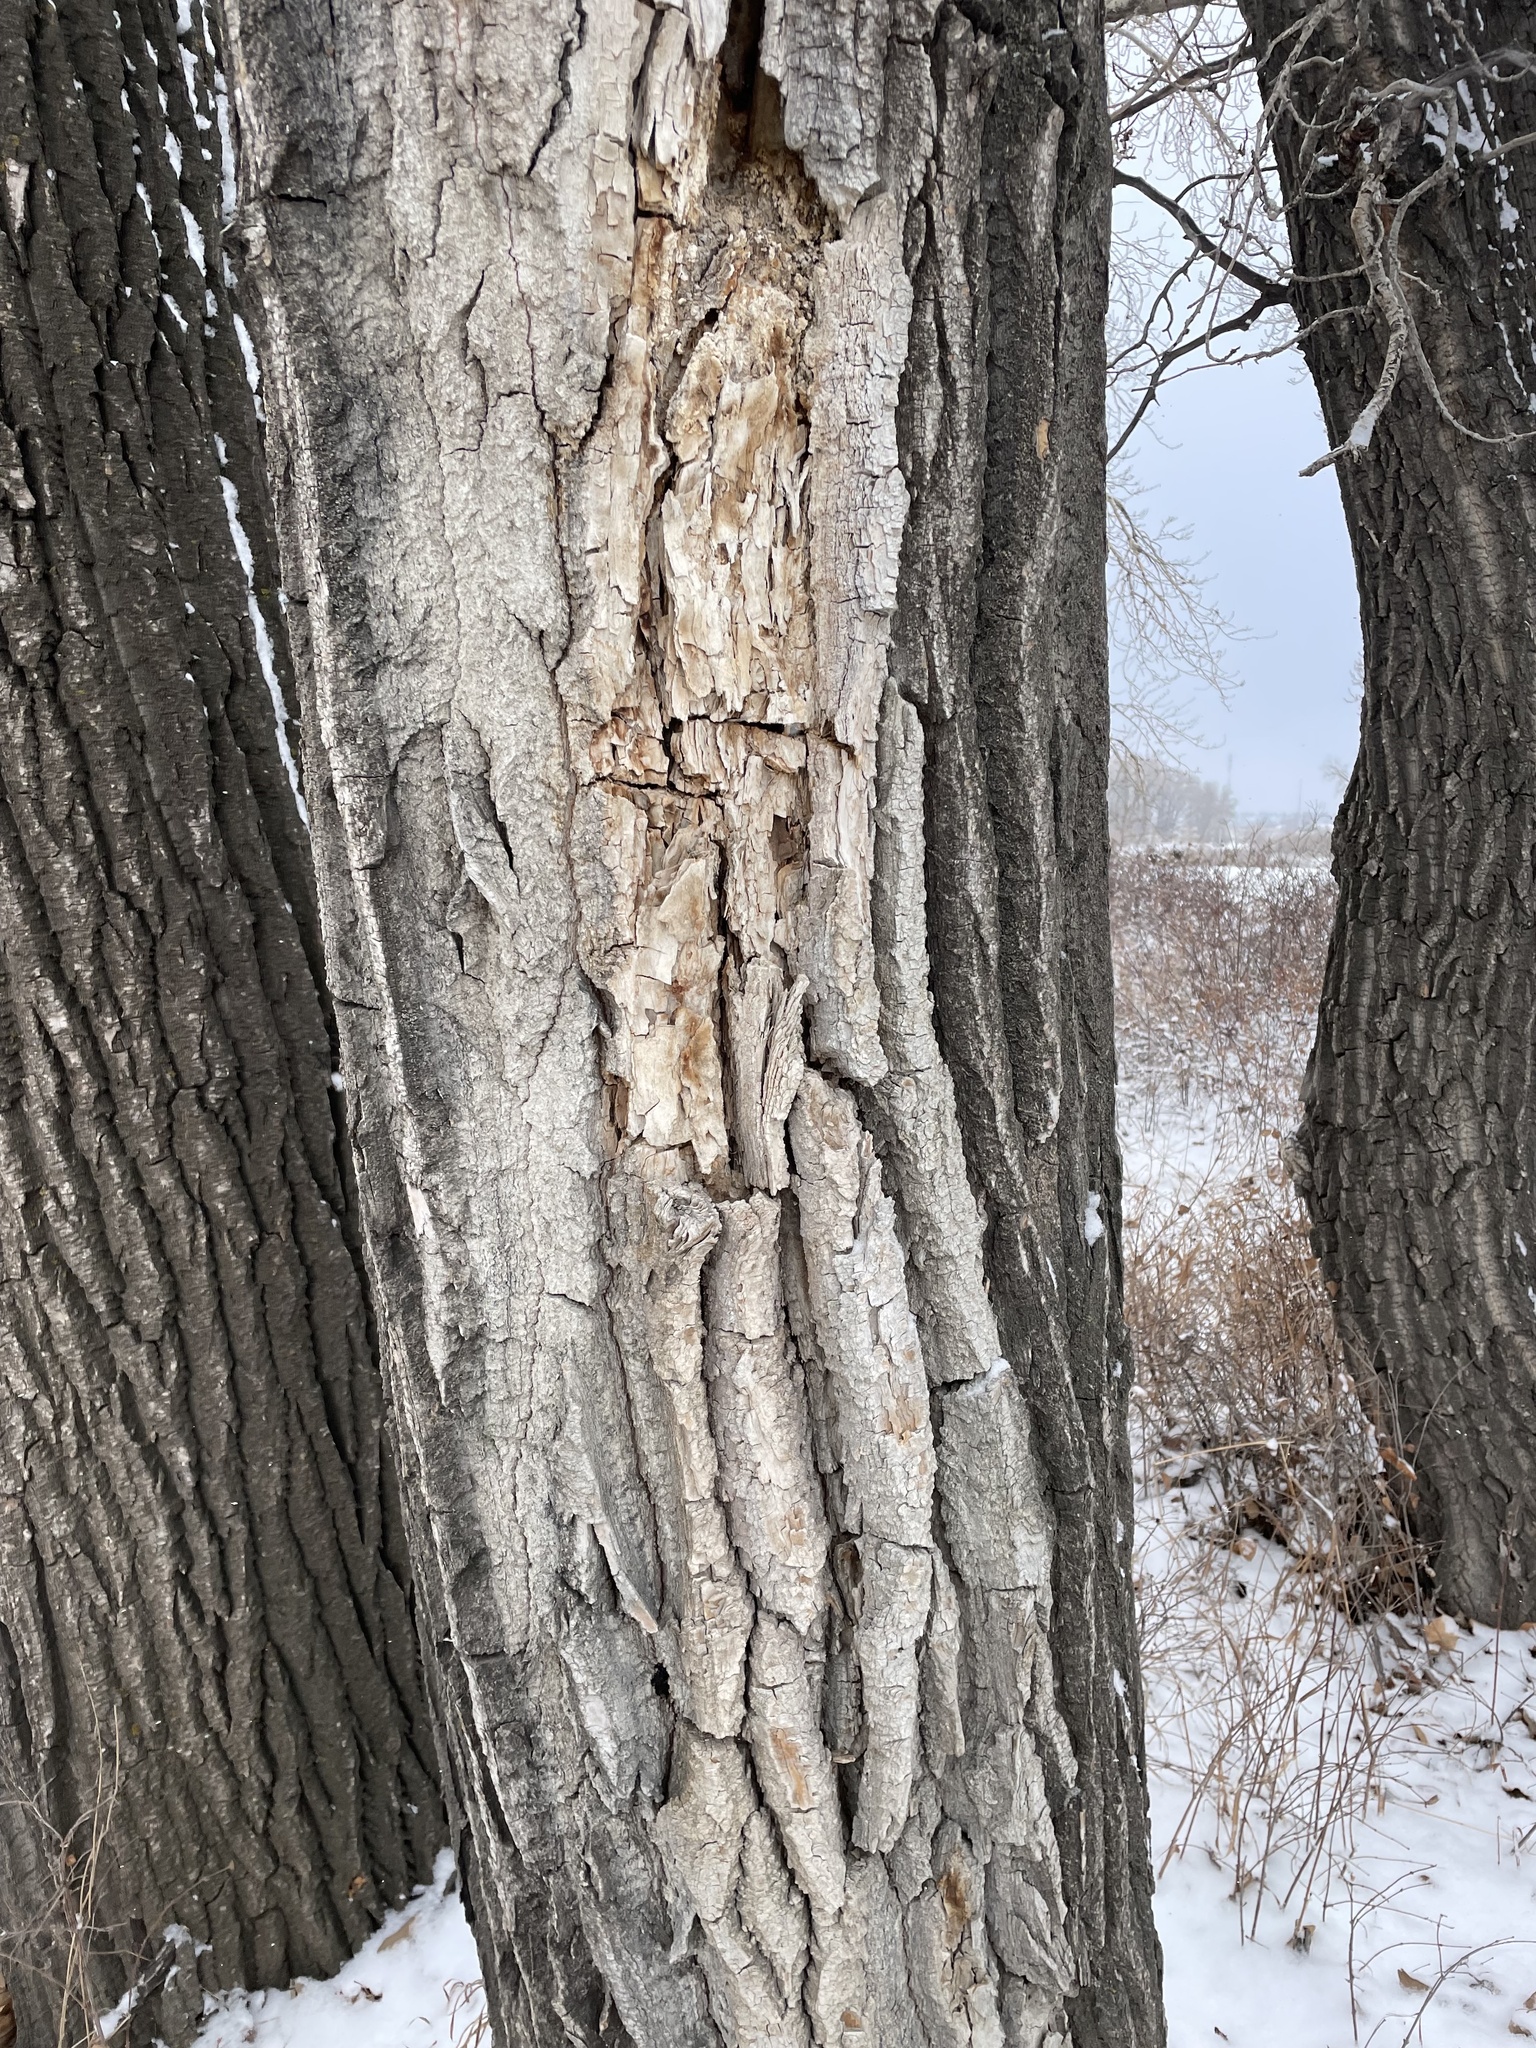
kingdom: Plantae
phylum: Tracheophyta
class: Magnoliopsida
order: Malpighiales
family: Salicaceae
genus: Populus
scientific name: Populus deltoides
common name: Eastern cottonwood
